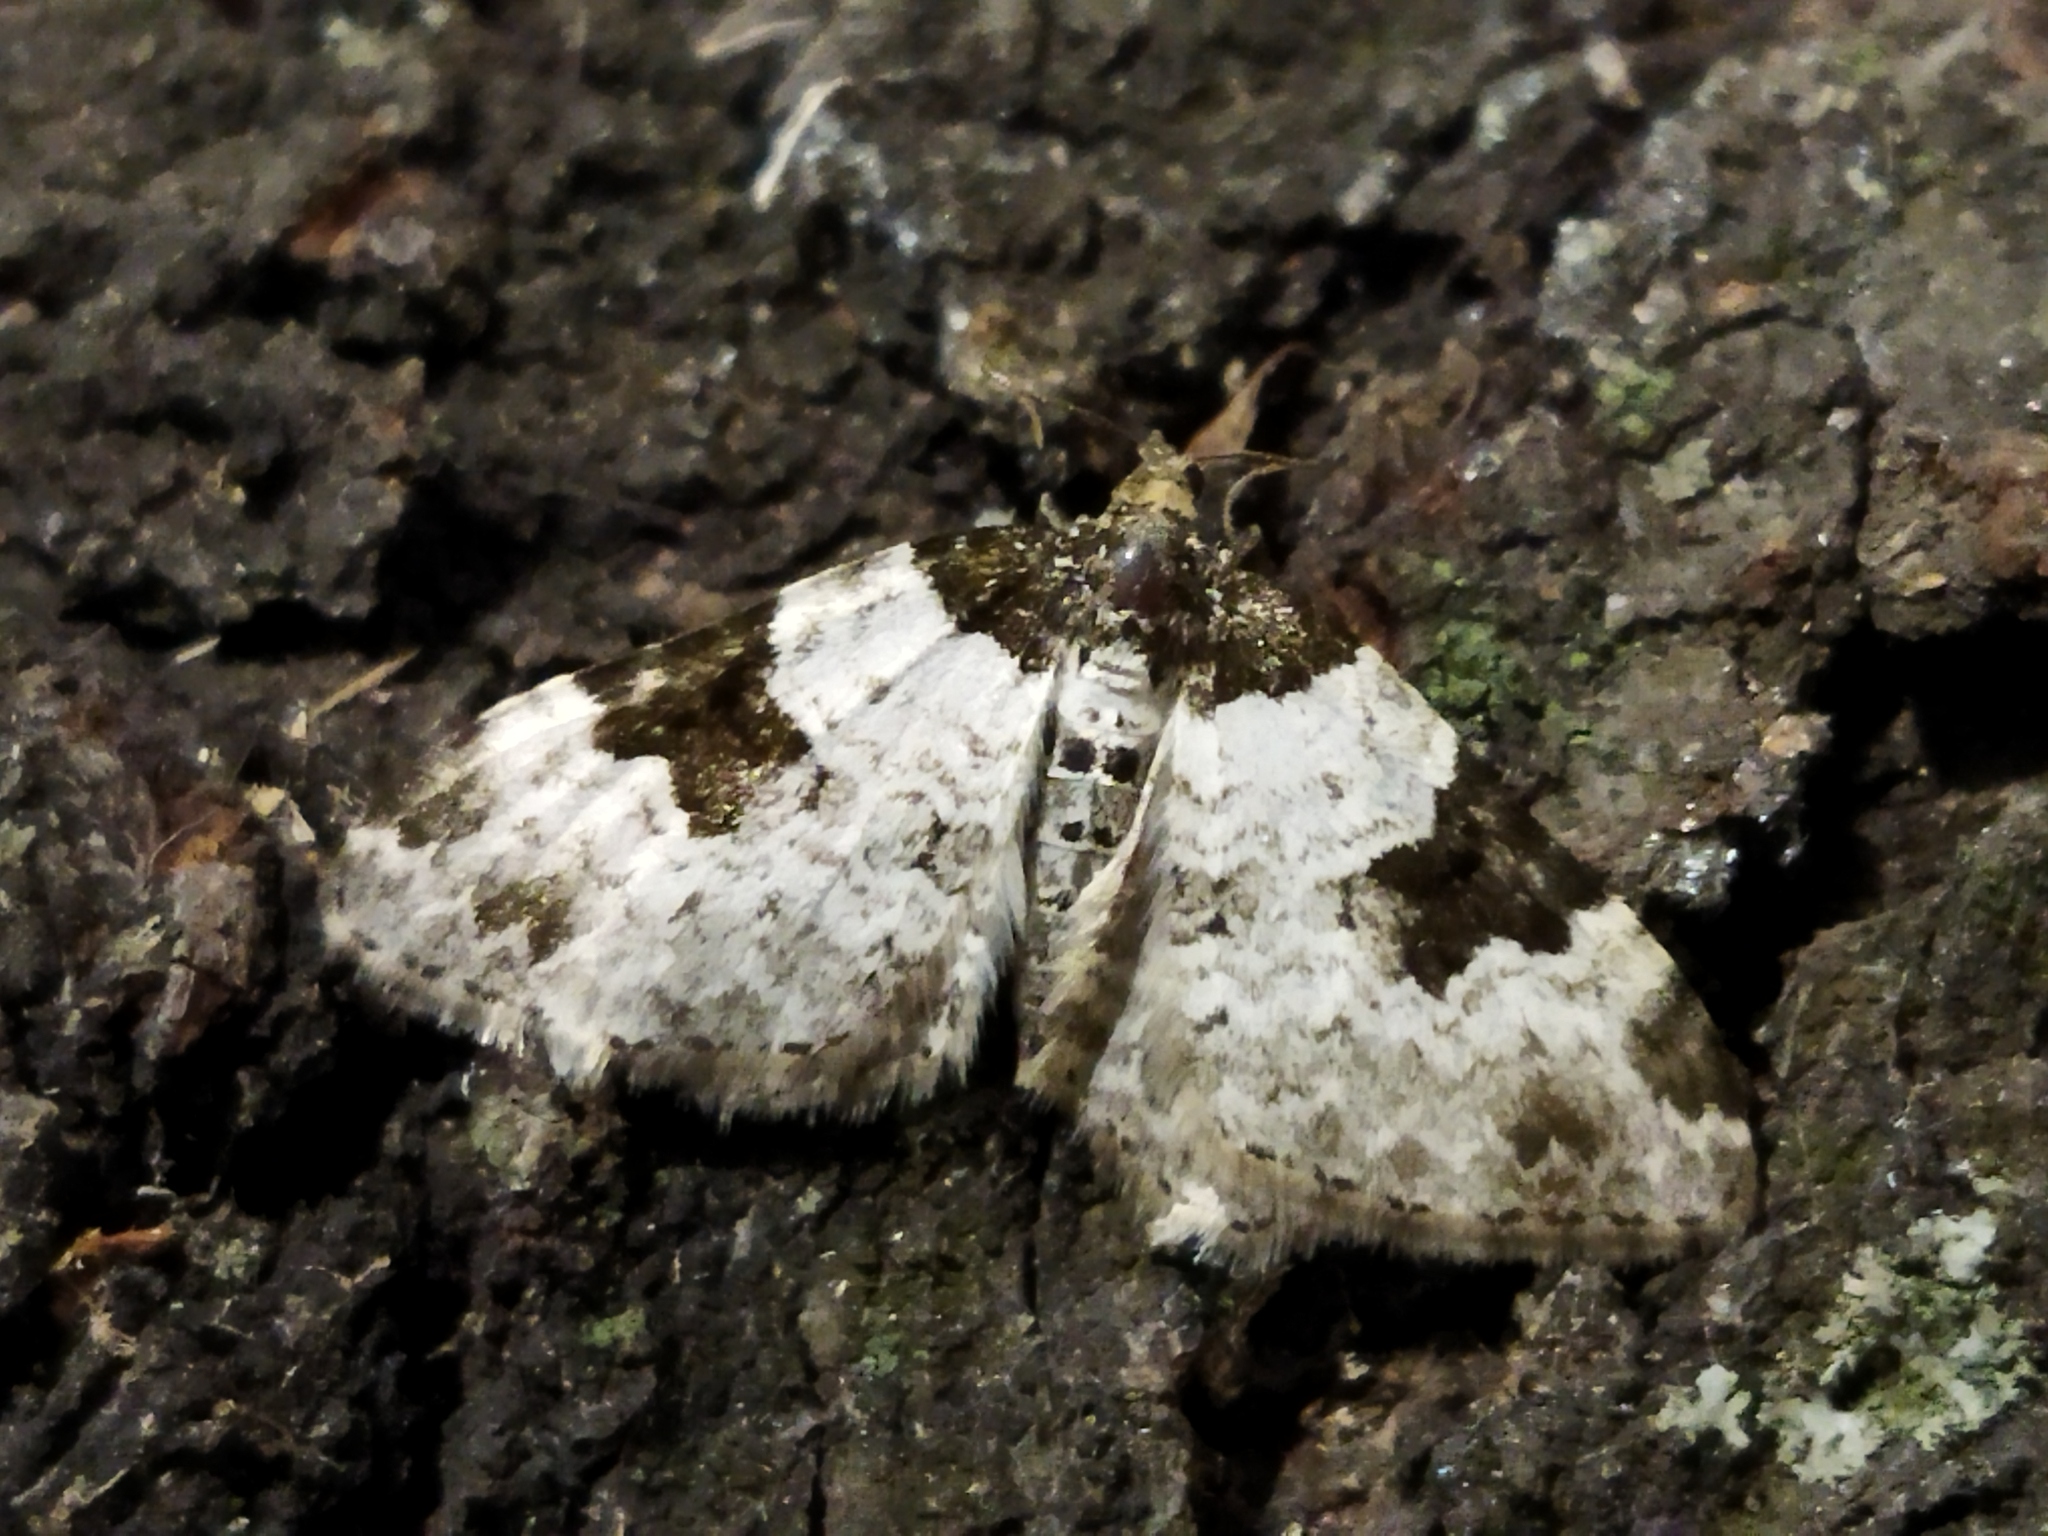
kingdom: Animalia
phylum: Arthropoda
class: Insecta
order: Lepidoptera
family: Geometridae
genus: Xanthorhoe
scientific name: Xanthorhoe fluctuata
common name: Garden carpet
